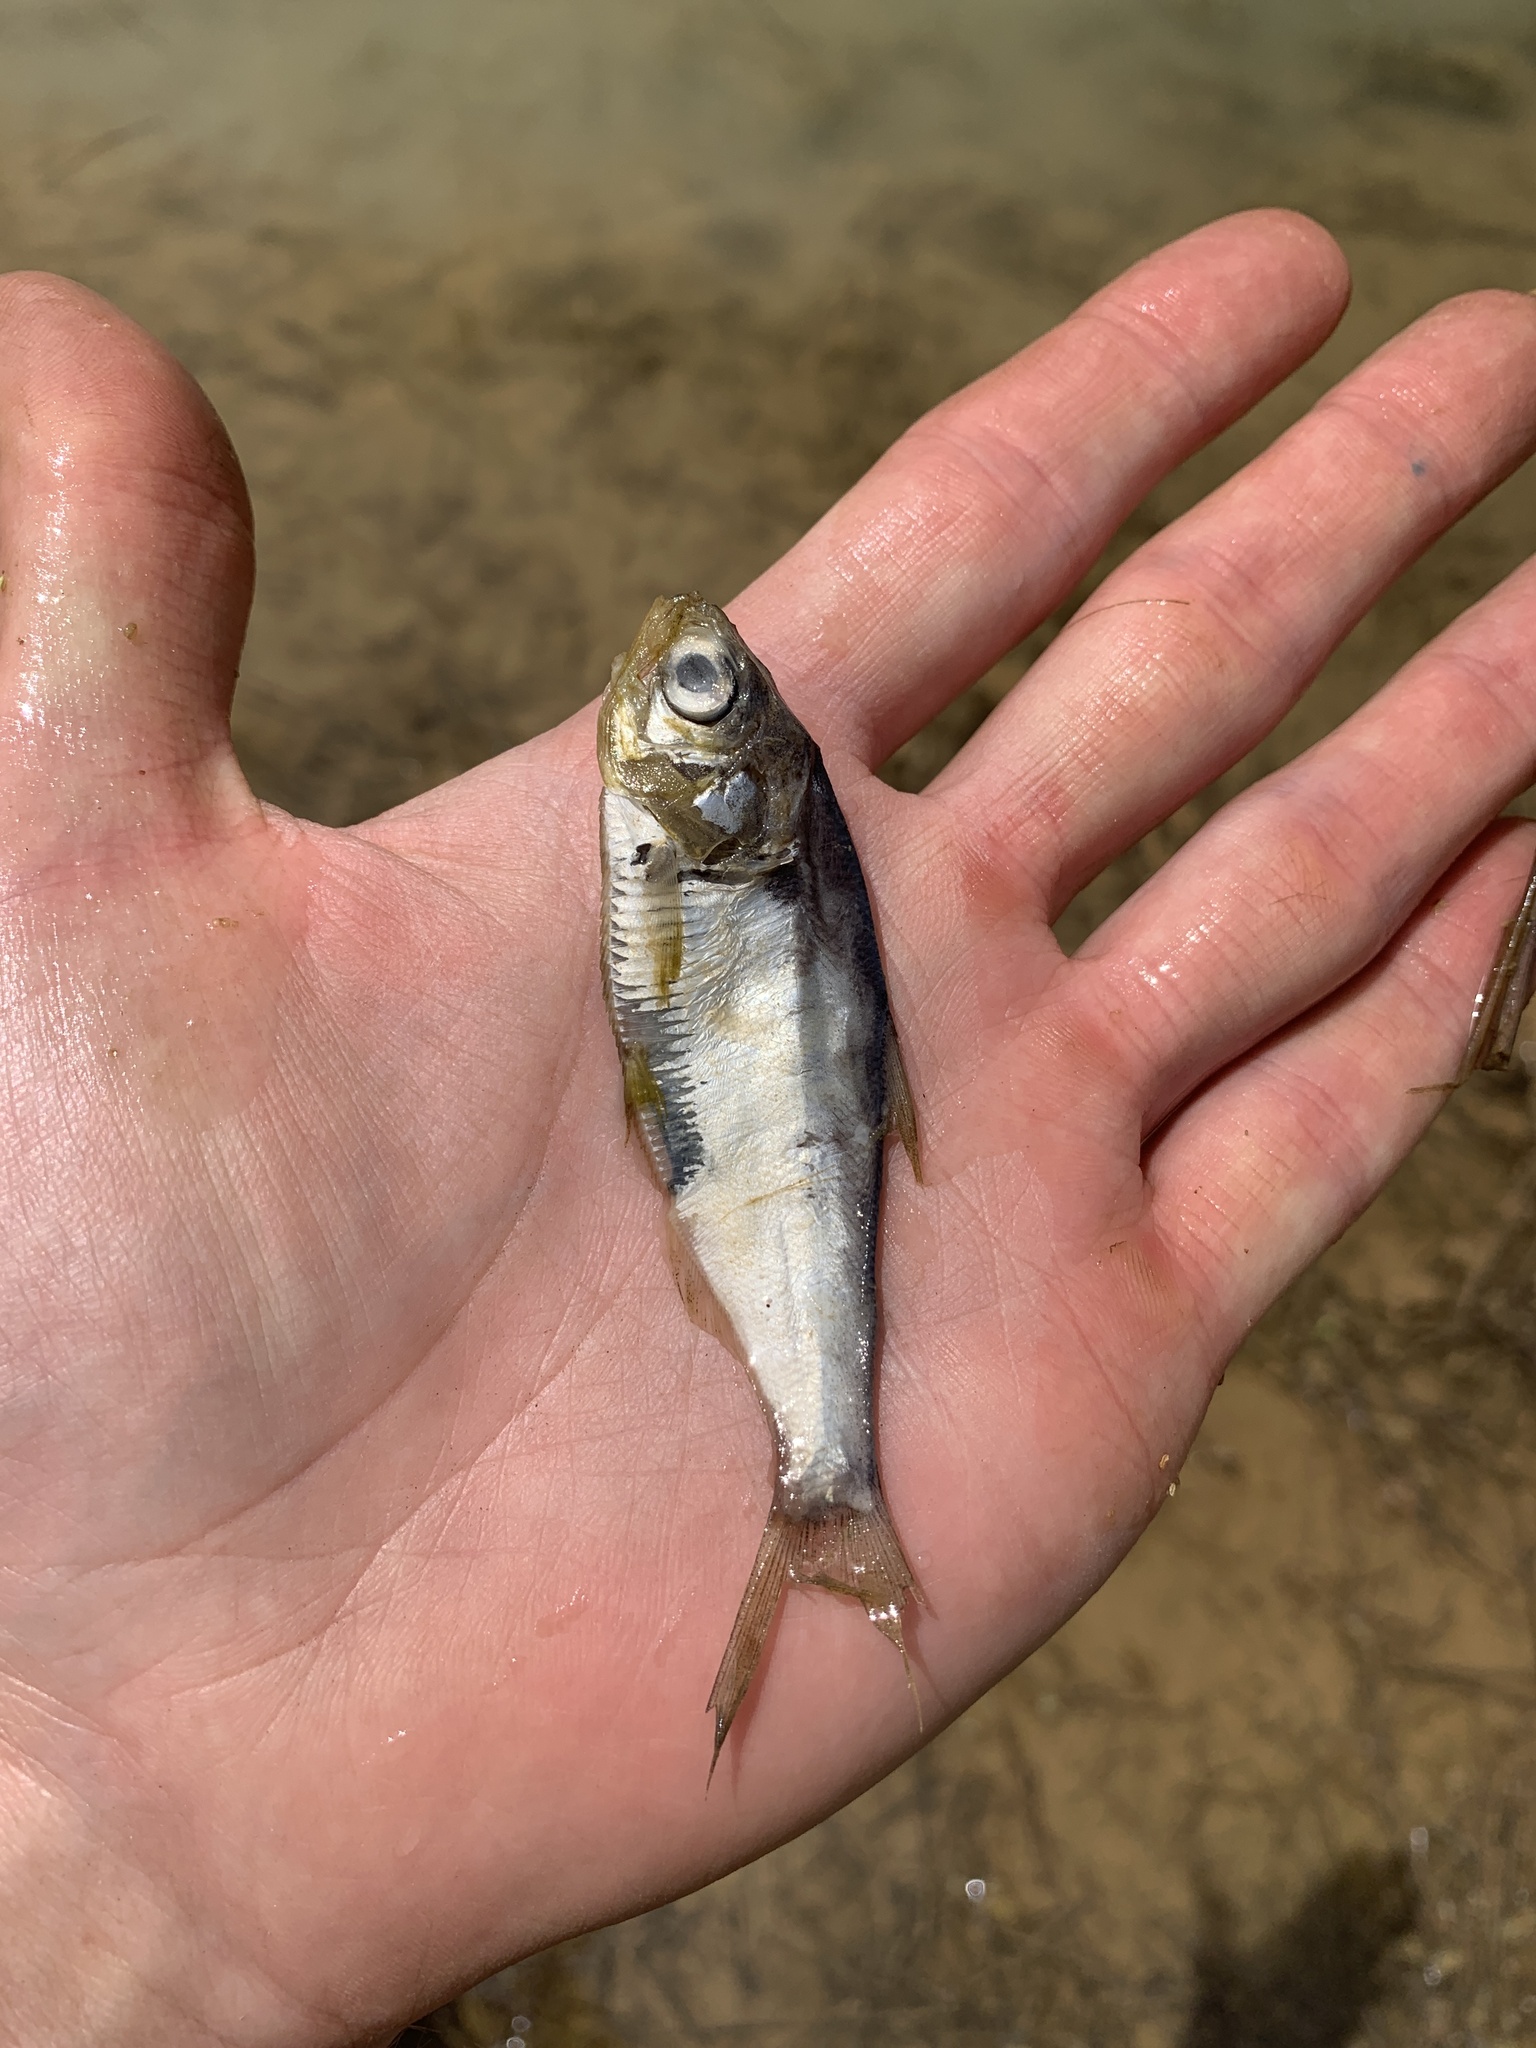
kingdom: Animalia
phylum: Chordata
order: Clupeiformes
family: Clupeidae
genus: Dorosoma
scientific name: Dorosoma cepedianum
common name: Gizzard shad
